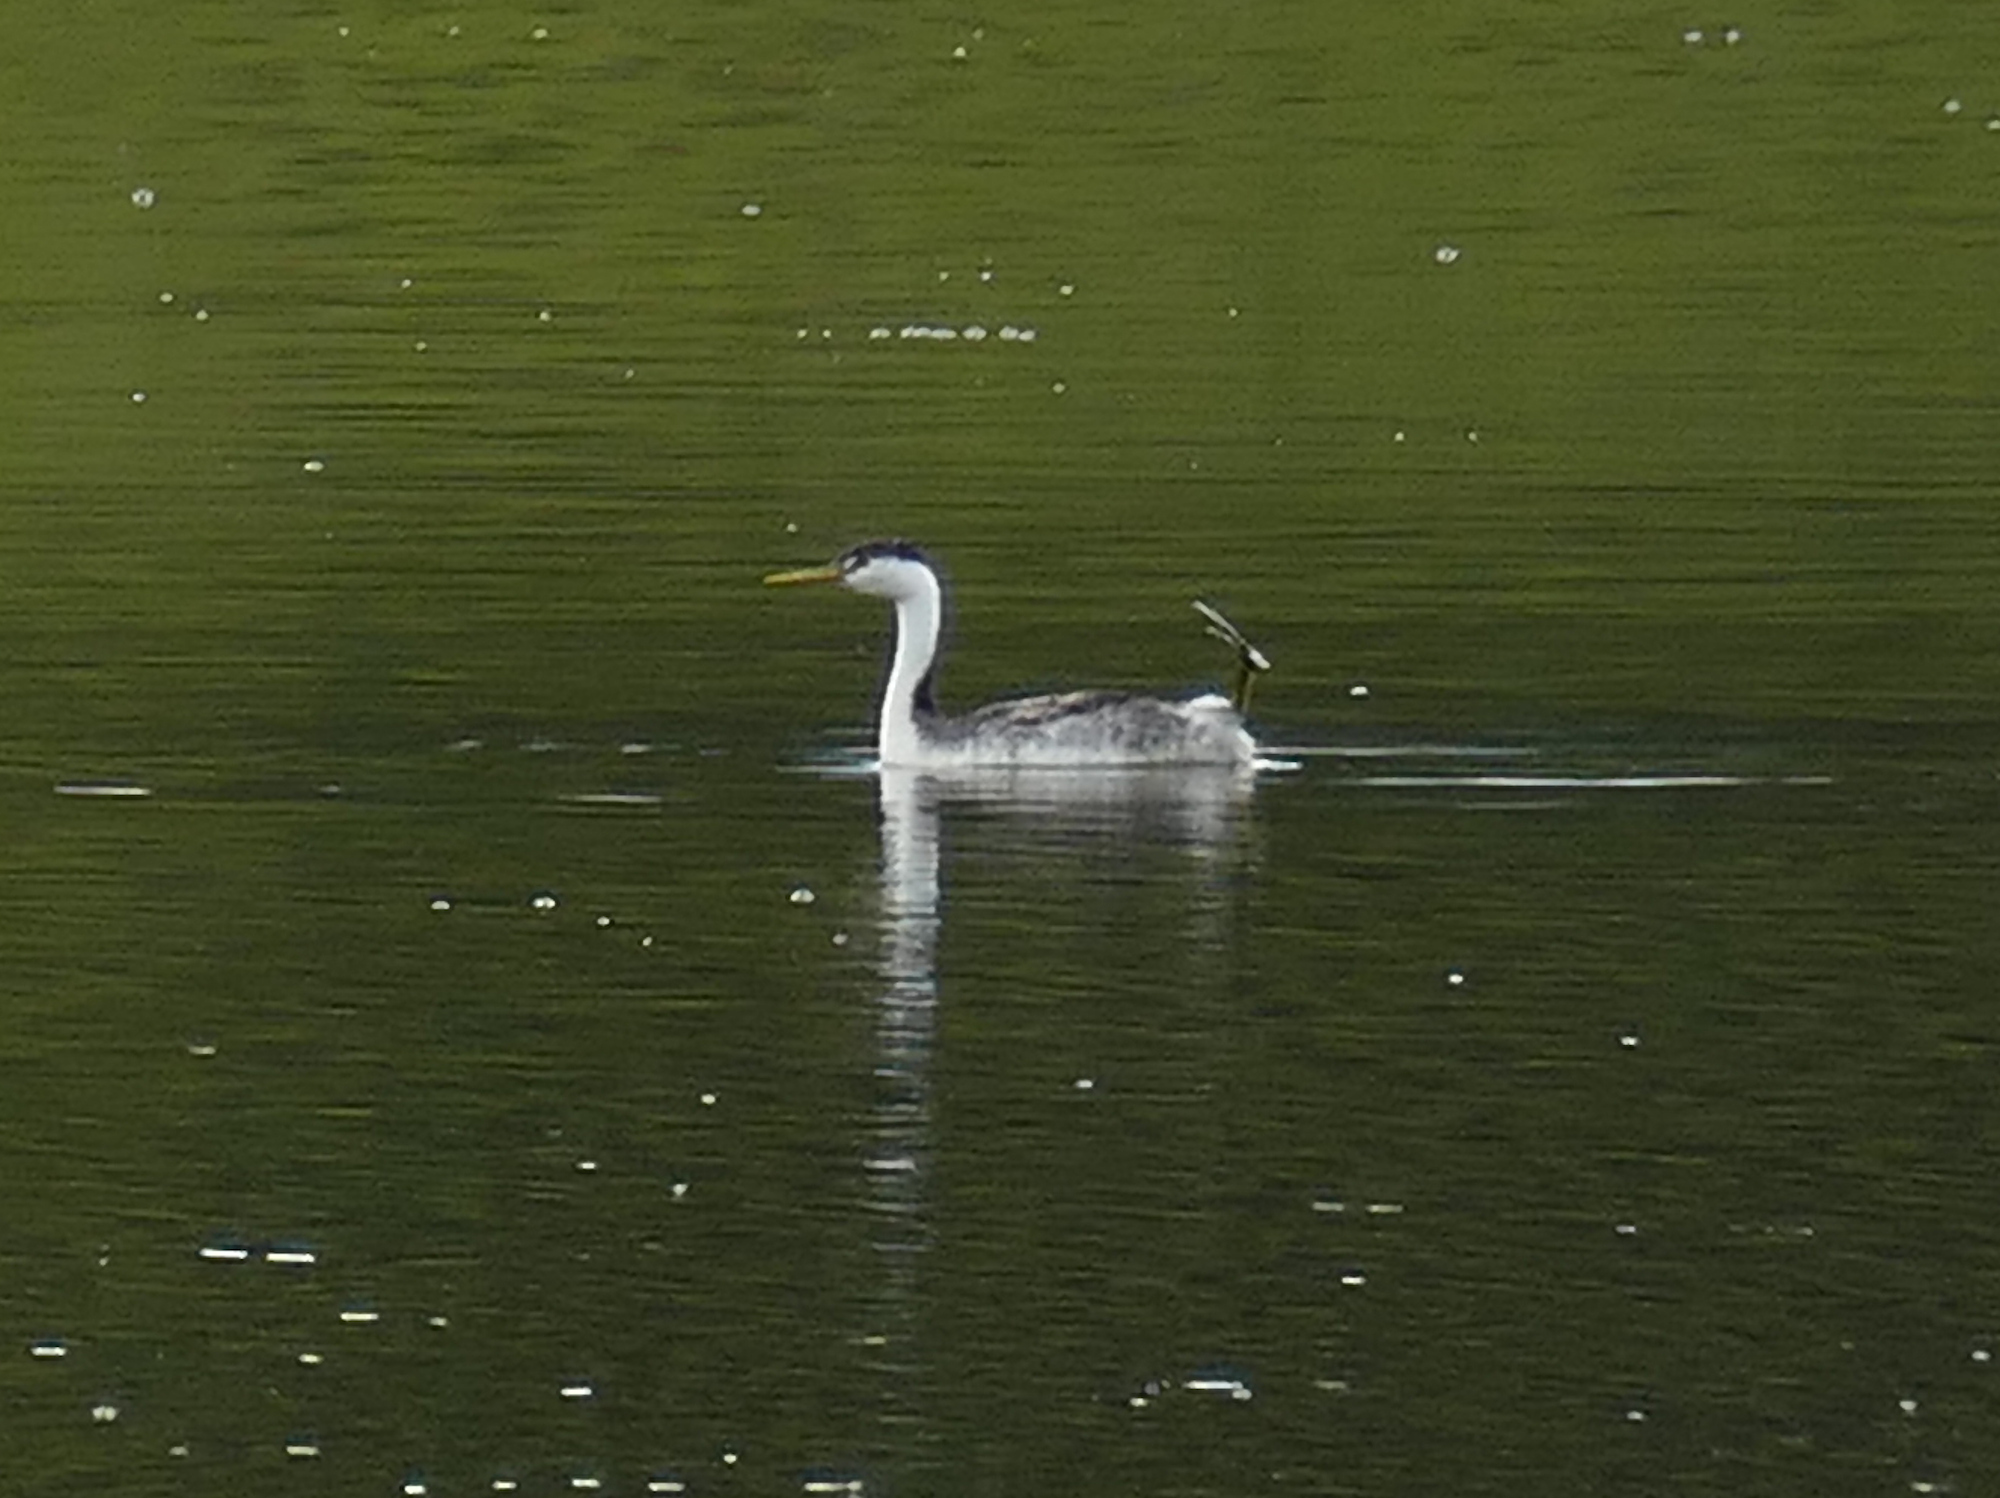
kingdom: Animalia
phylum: Chordata
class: Aves
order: Podicipediformes
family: Podicipedidae
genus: Aechmophorus
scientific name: Aechmophorus clarkii
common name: Clark's grebe
